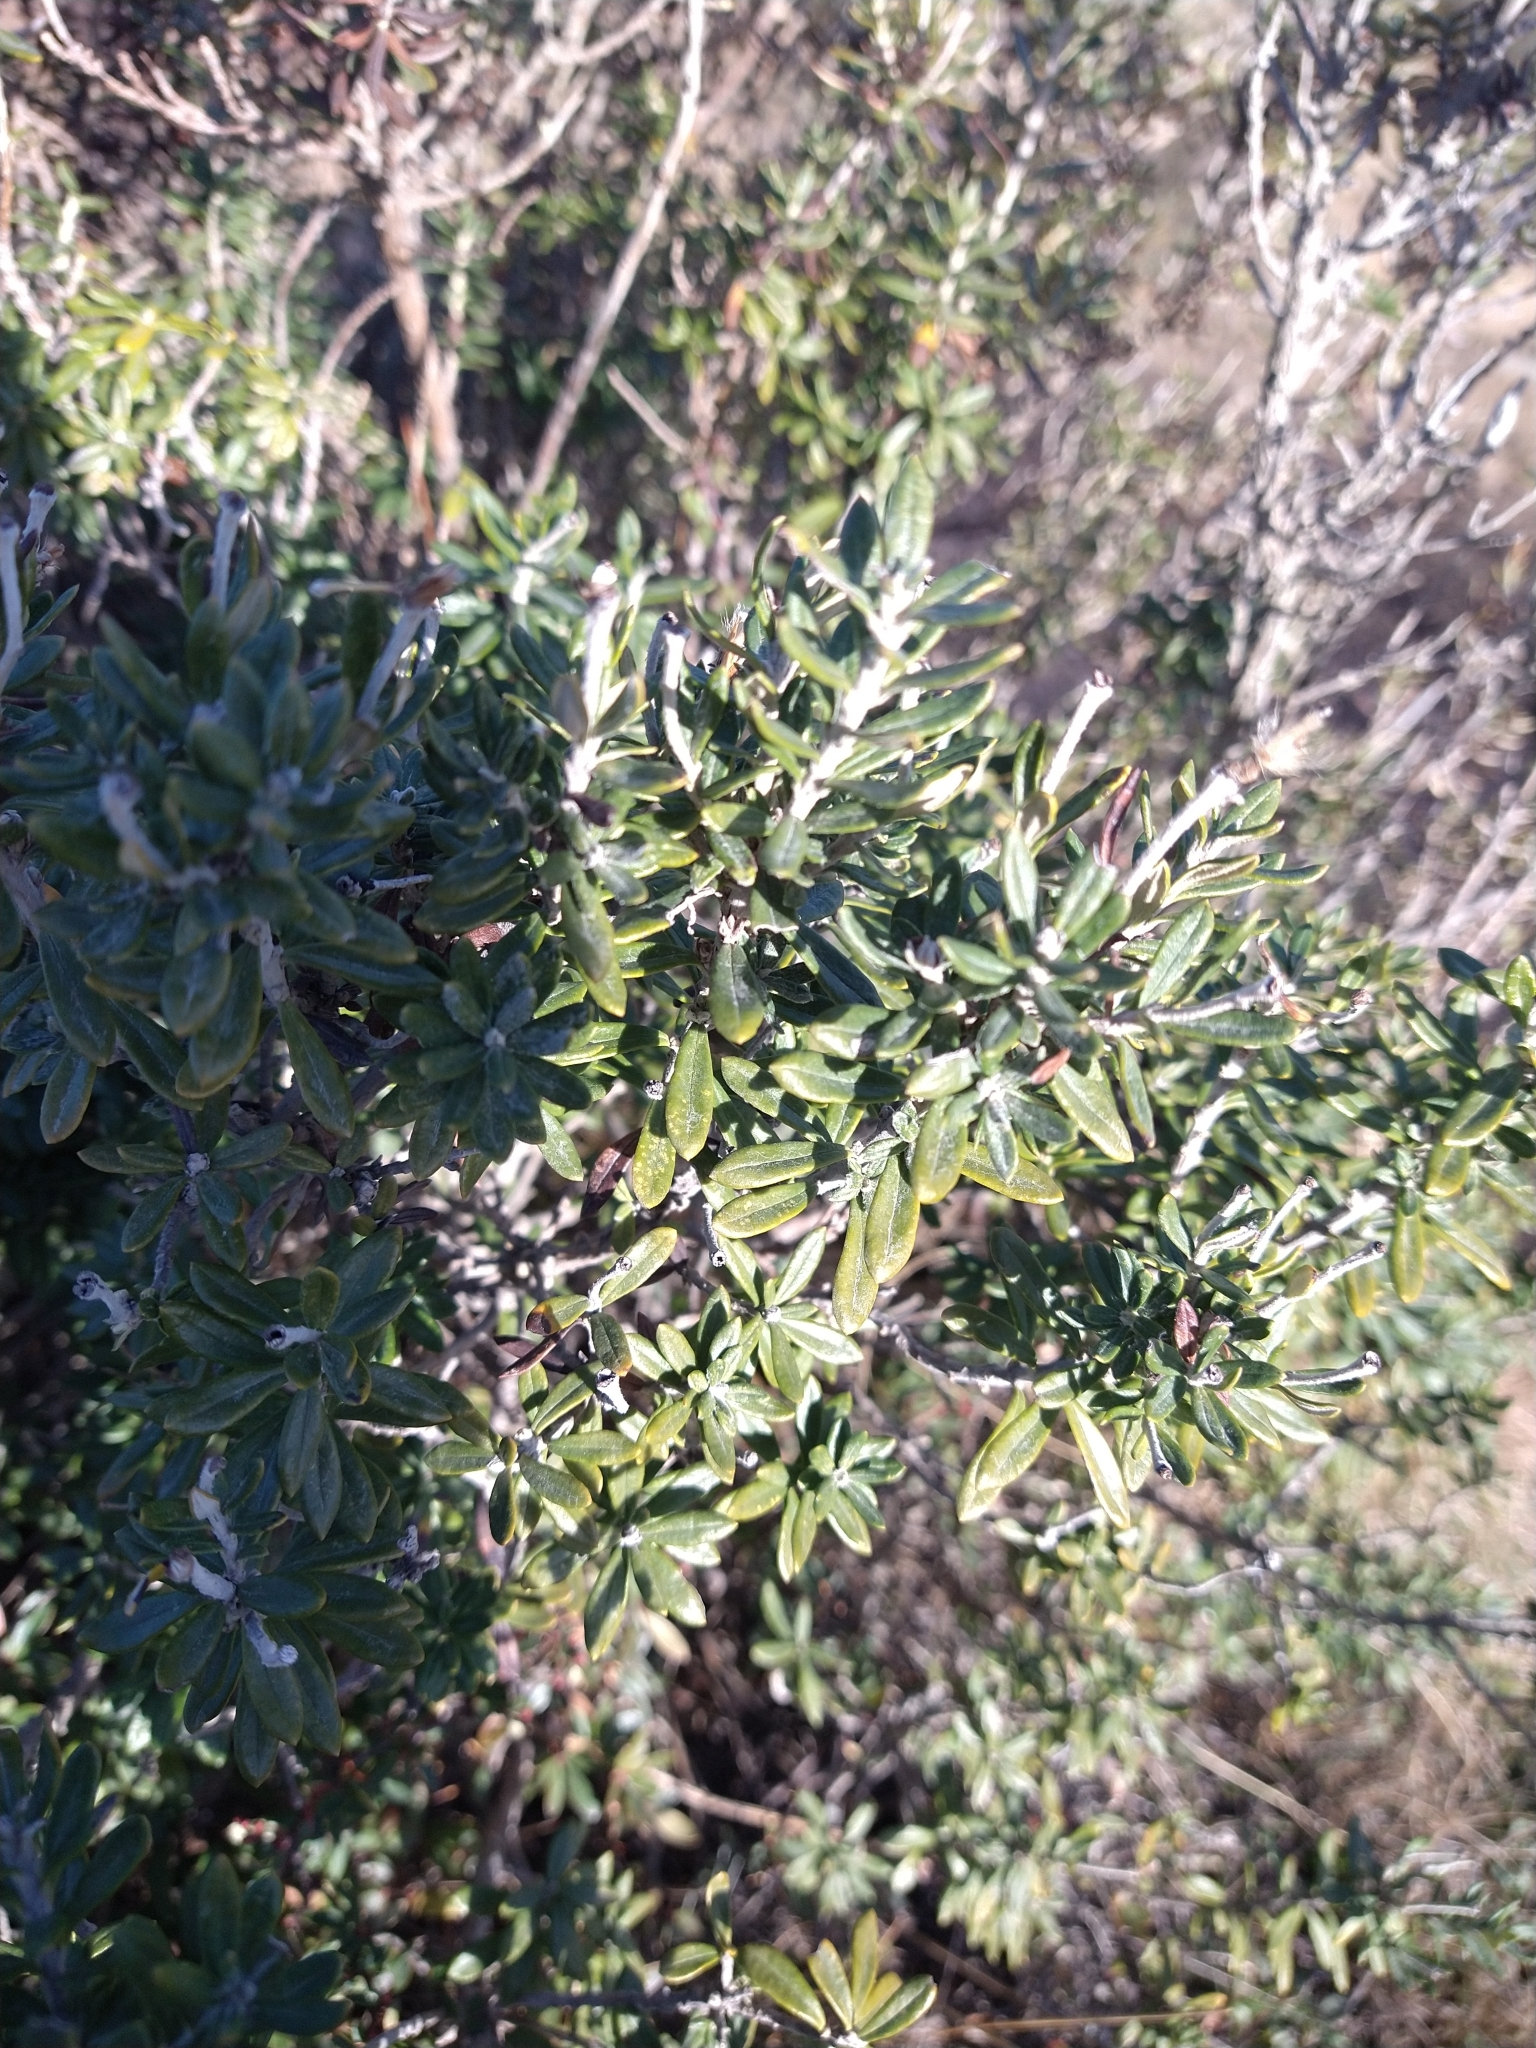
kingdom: Plantae
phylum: Tracheophyta
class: Magnoliopsida
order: Asterales
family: Asteraceae
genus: Chiliotrichum
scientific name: Chiliotrichum diffusum
